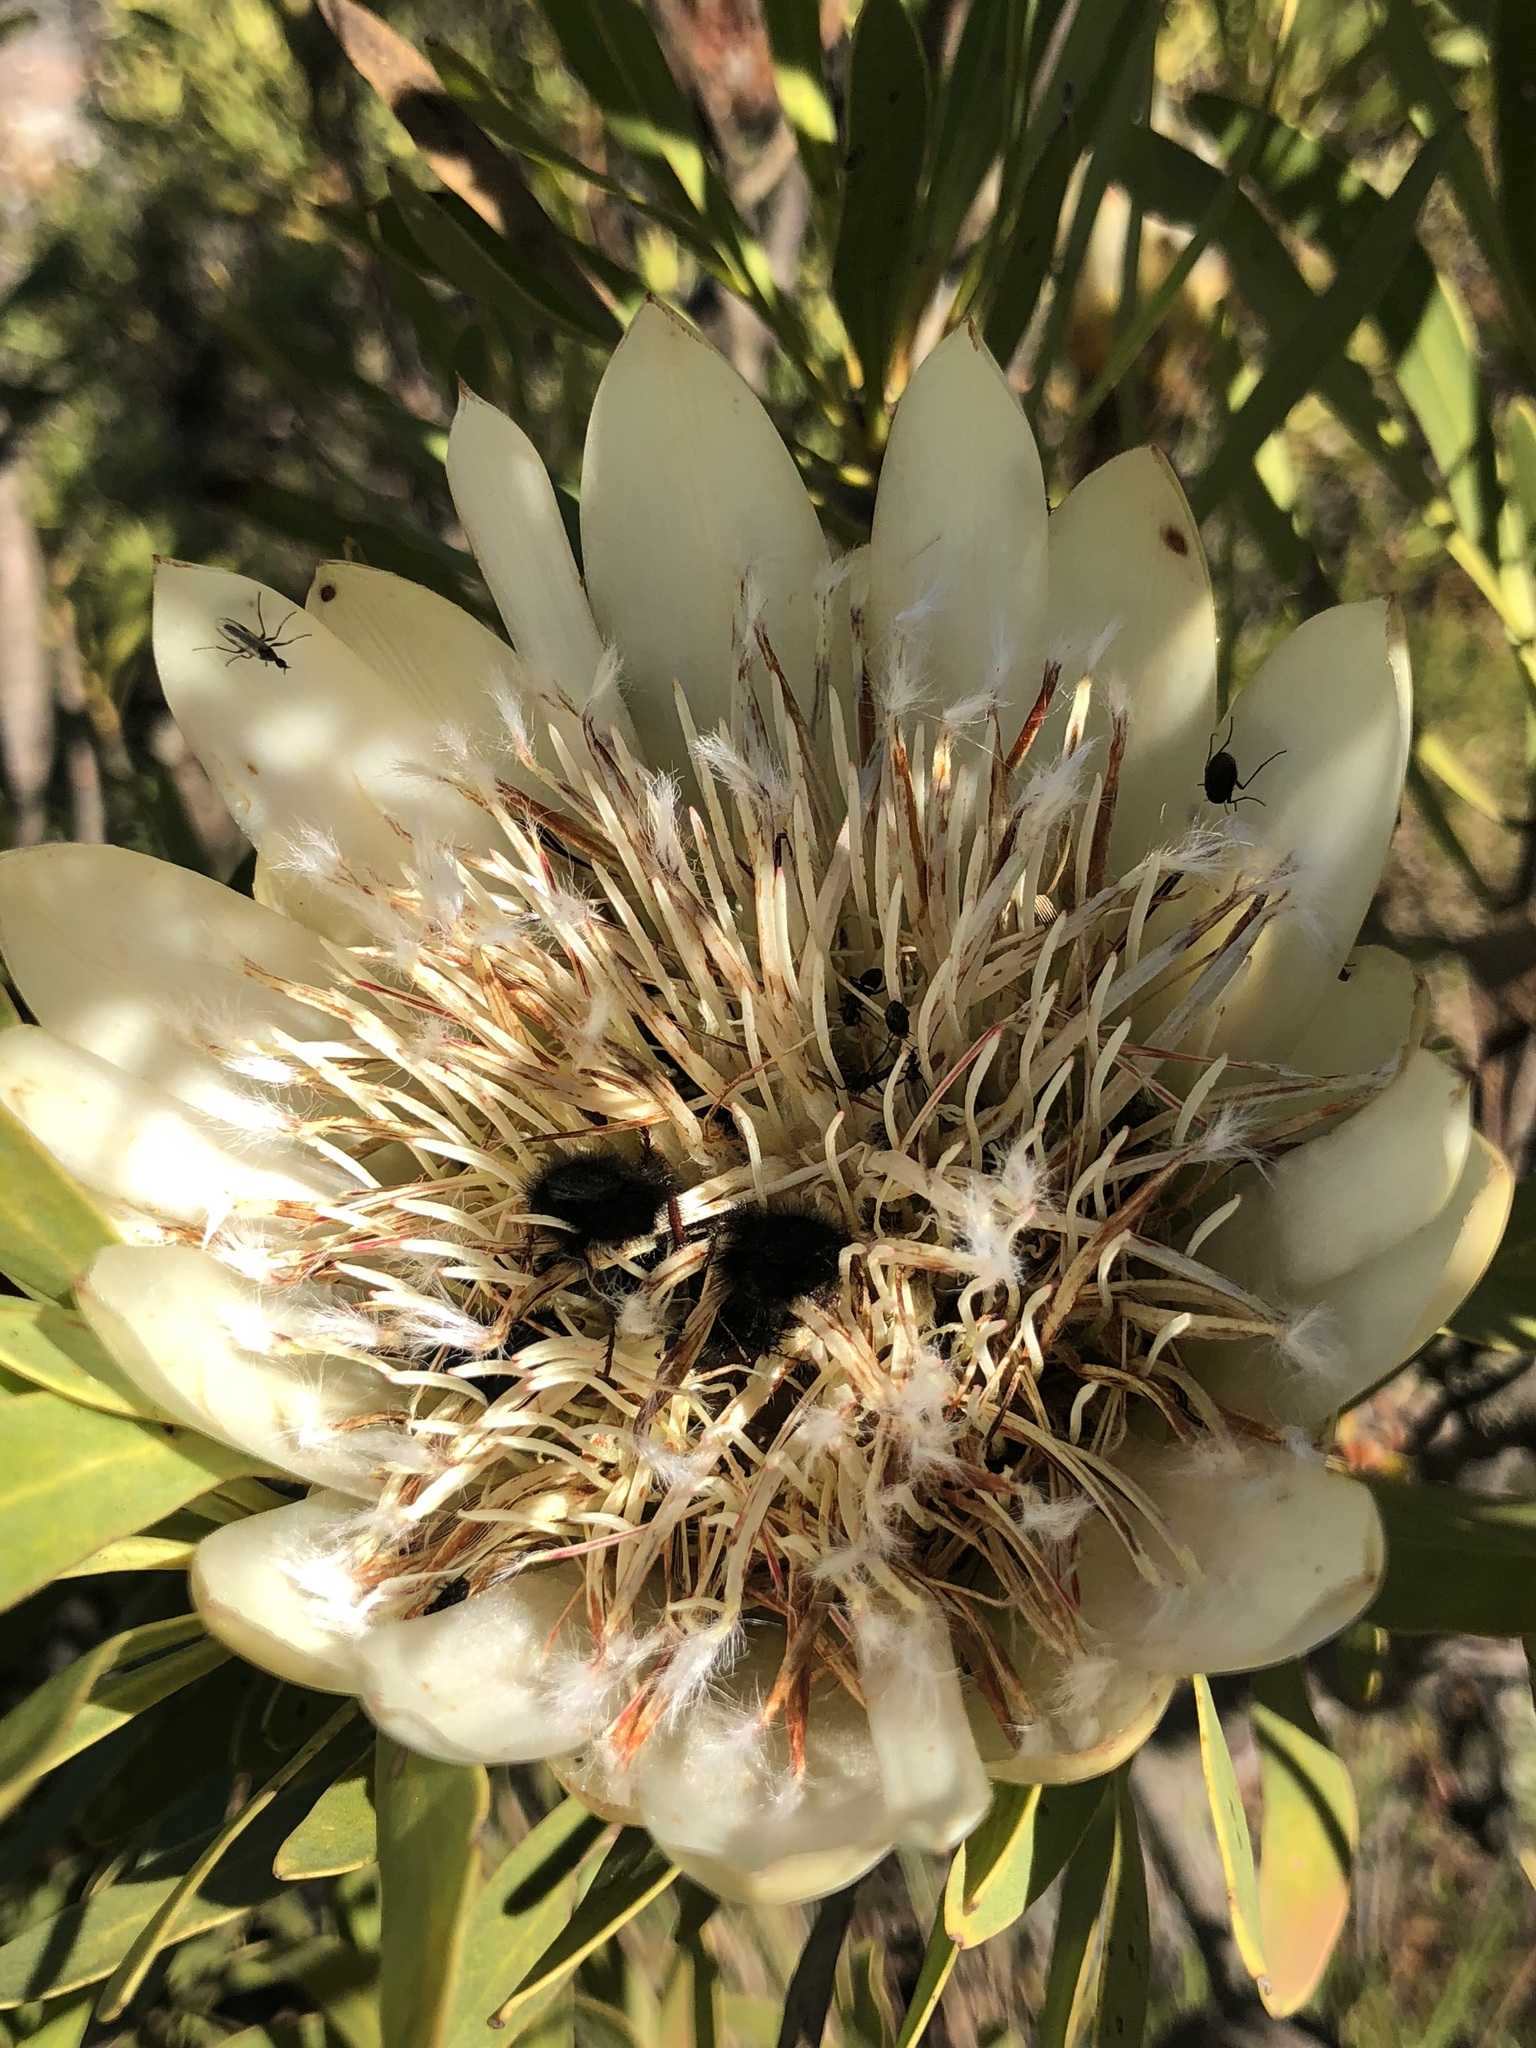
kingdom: Plantae
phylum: Tracheophyta
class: Magnoliopsida
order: Proteales
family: Proteaceae
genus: Protea
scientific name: Protea repens
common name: Sugarbush
